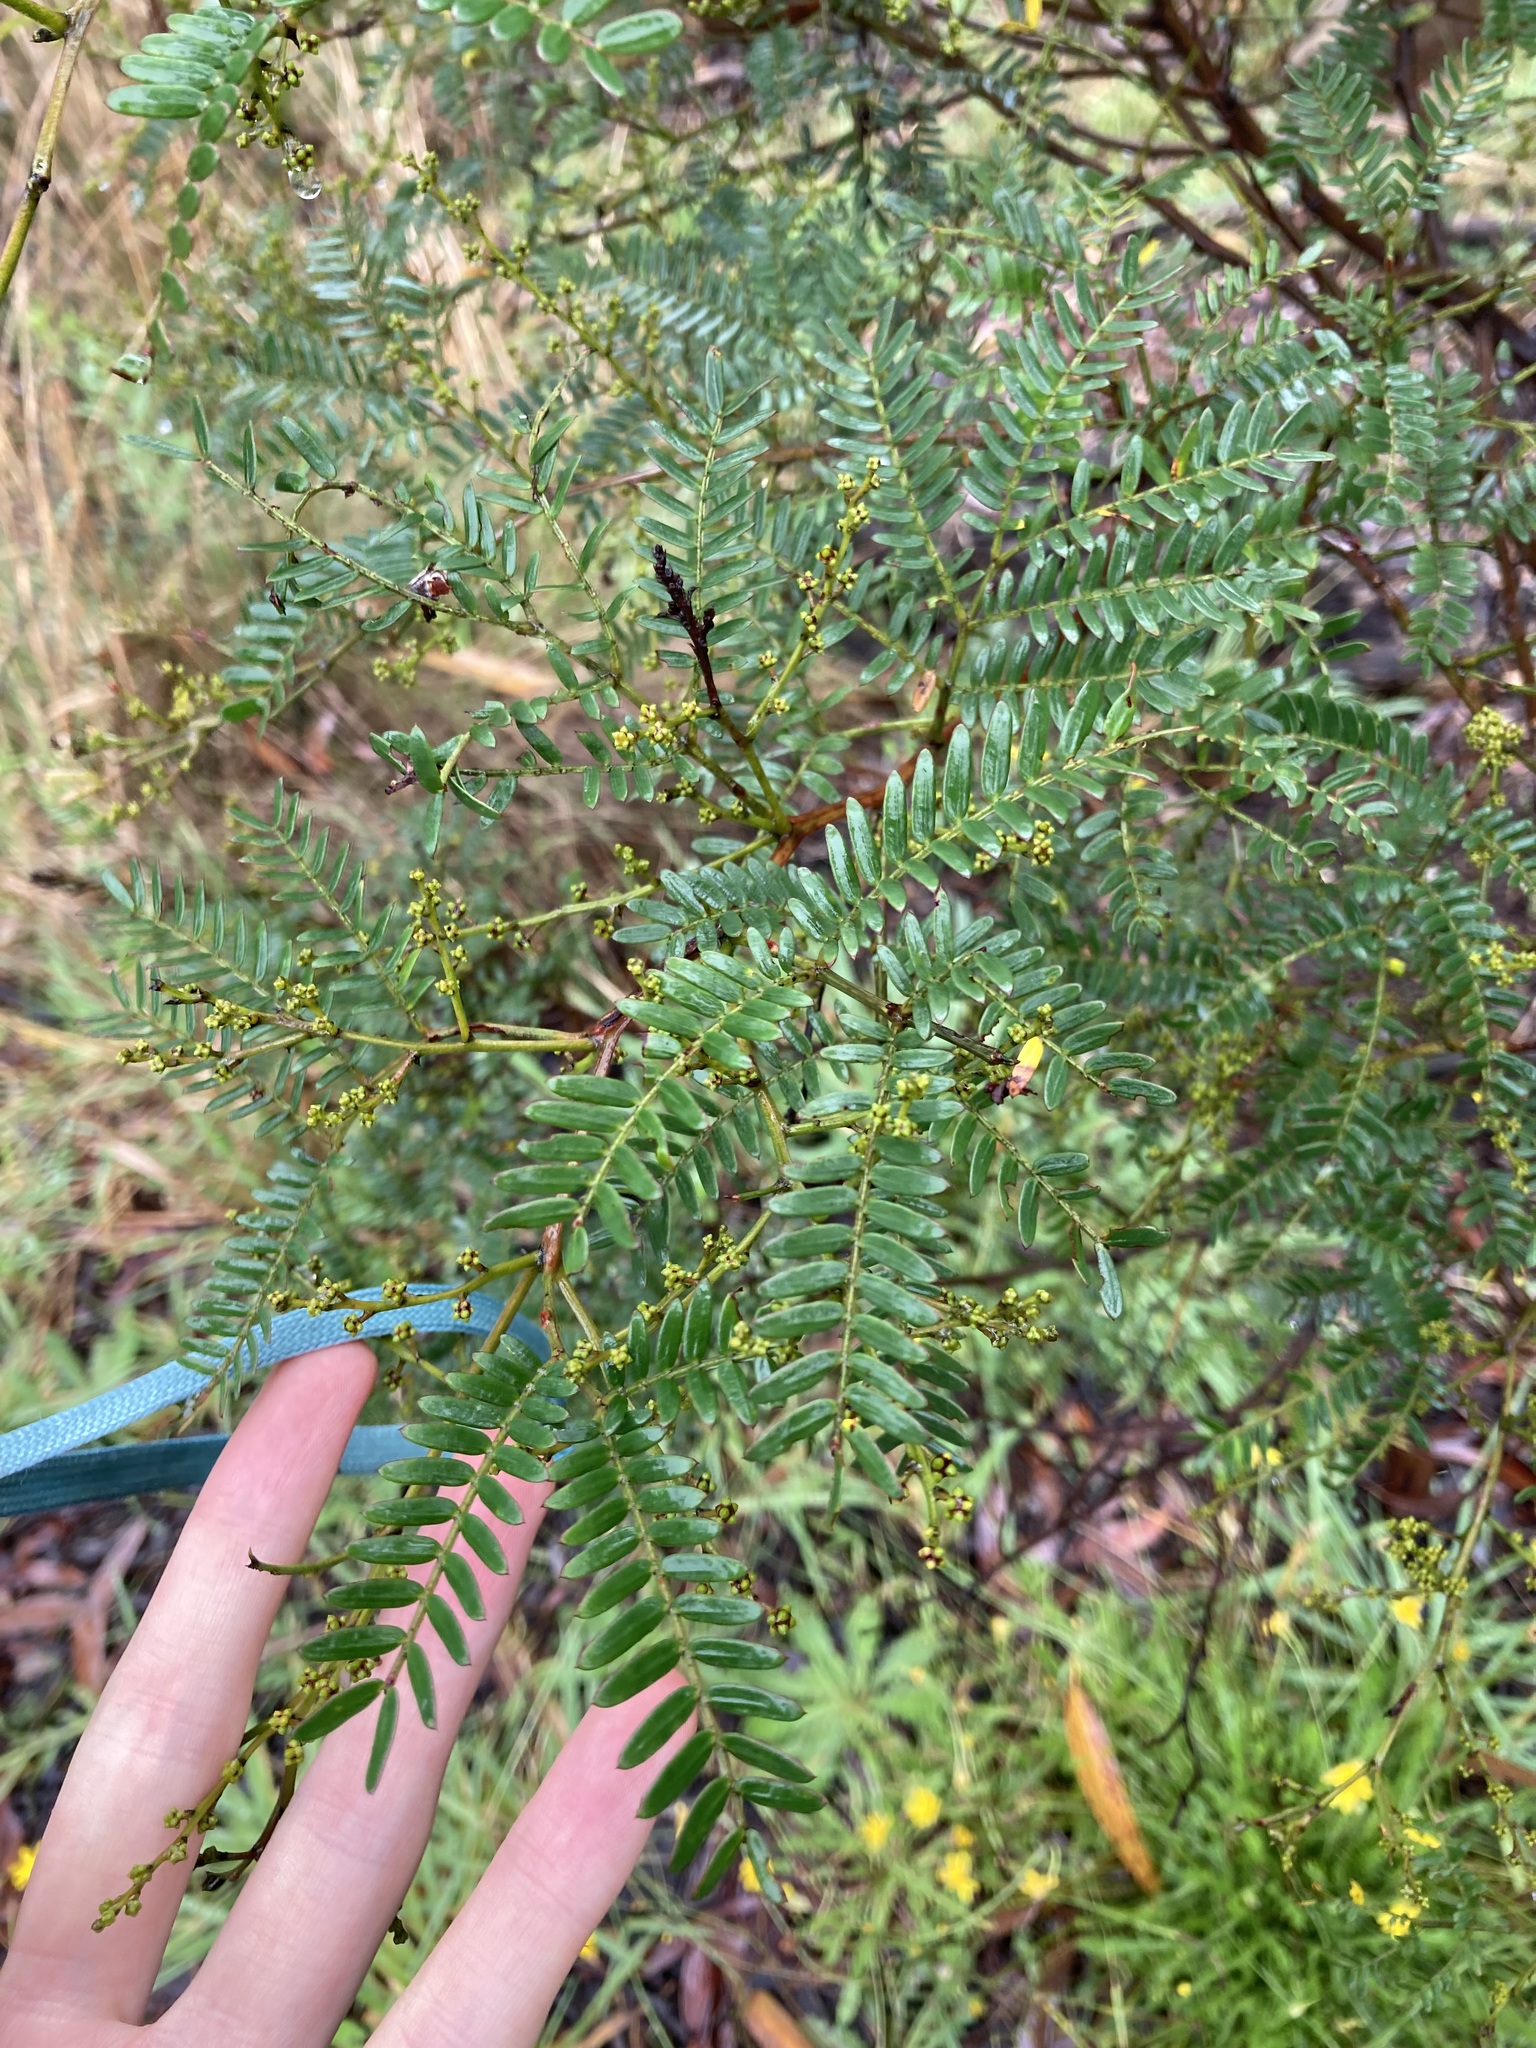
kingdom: Plantae
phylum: Tracheophyta
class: Magnoliopsida
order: Fabales
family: Fabaceae
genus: Acacia
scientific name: Acacia terminalis
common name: Cedar wattle
